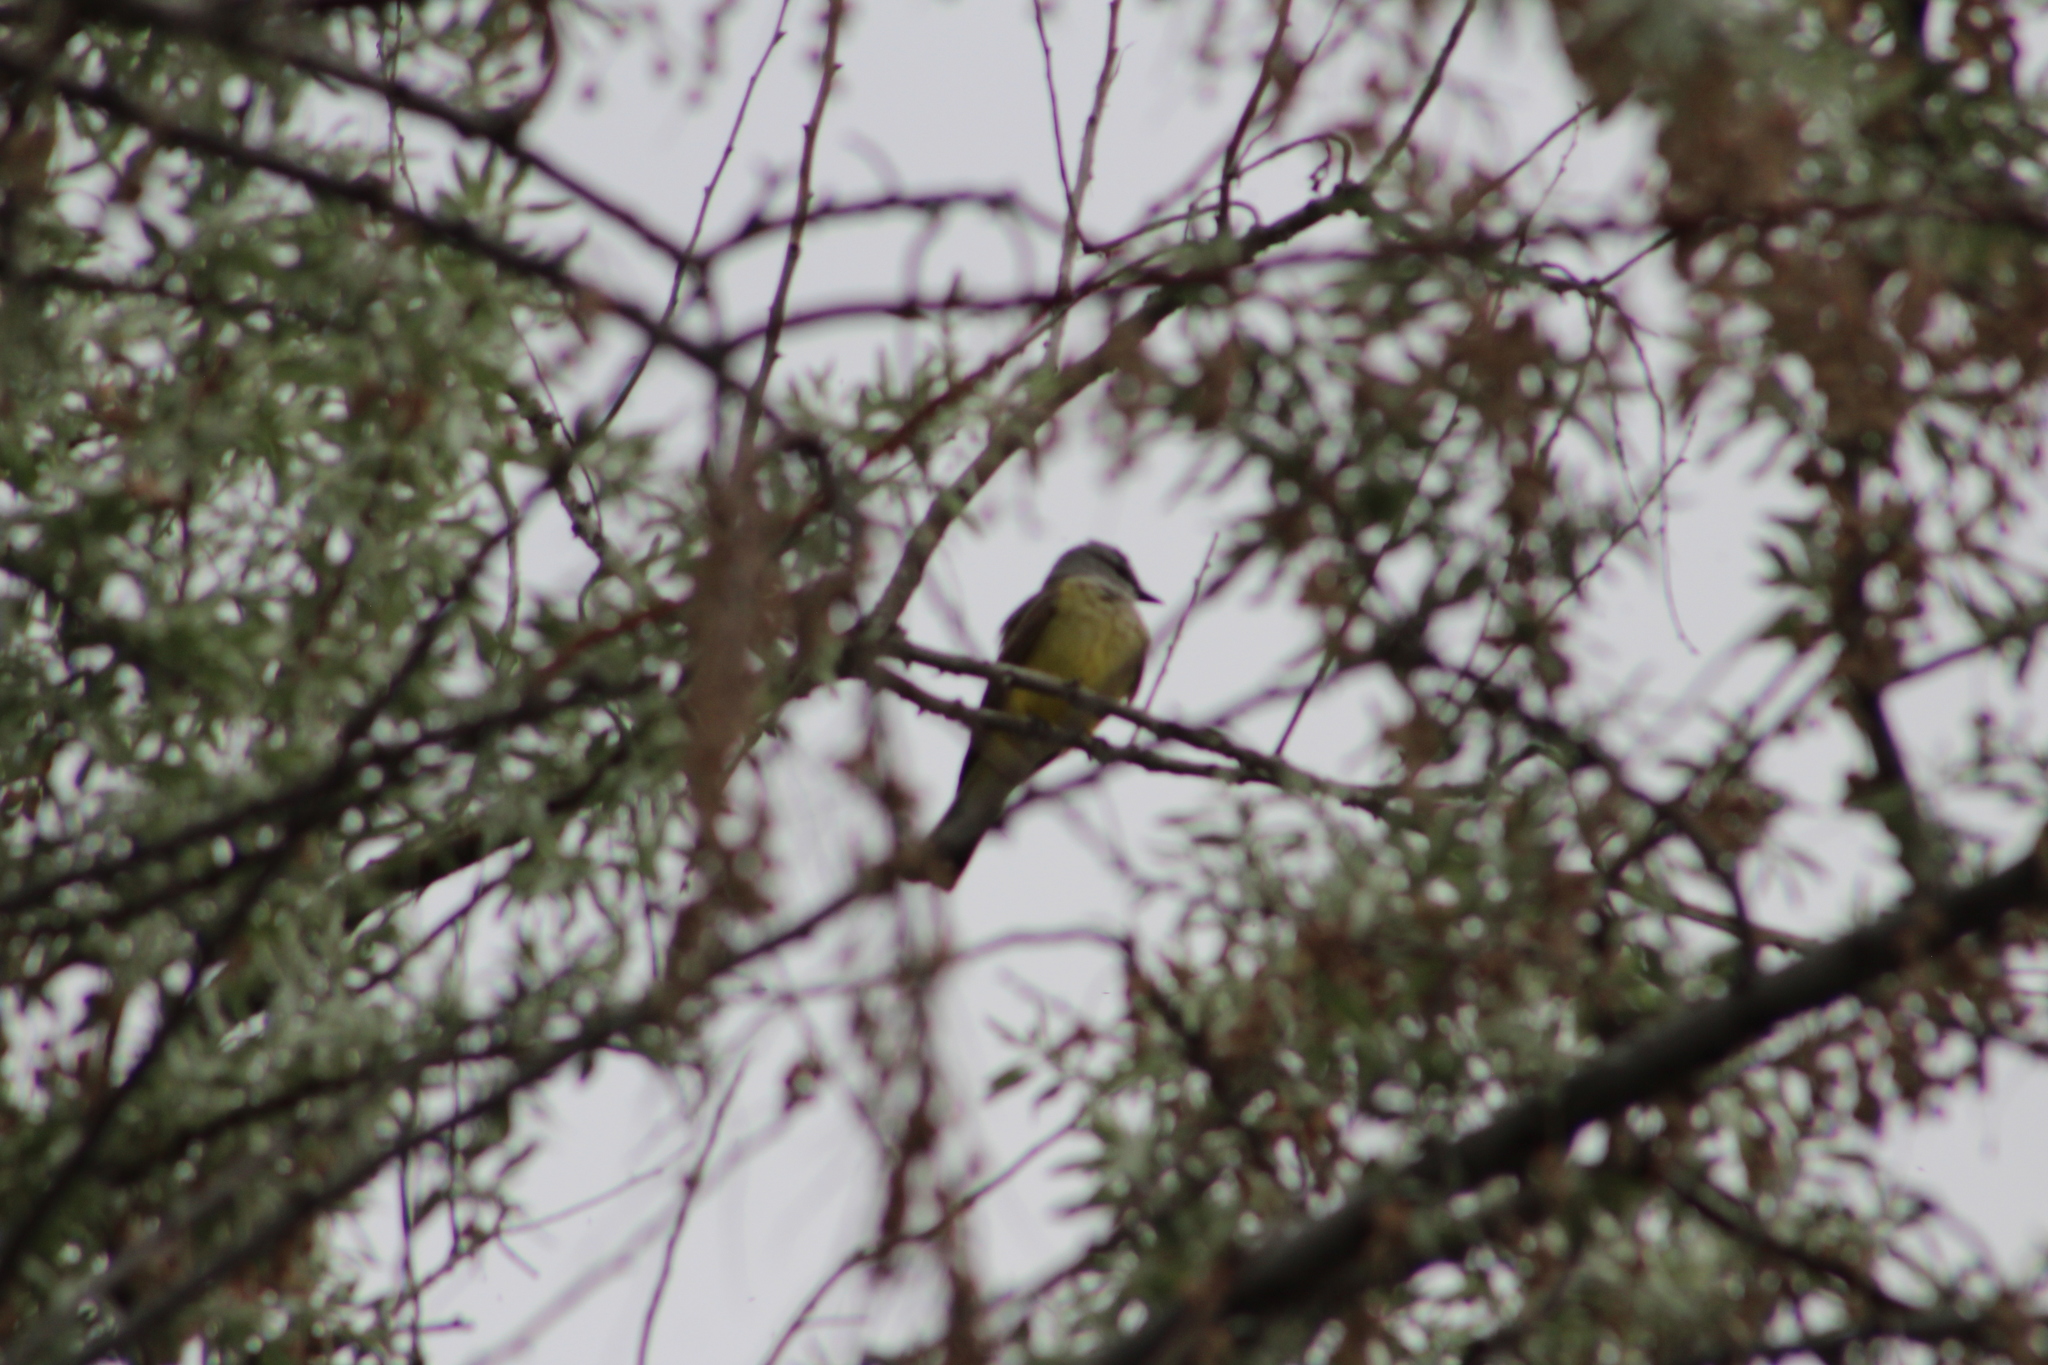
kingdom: Animalia
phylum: Chordata
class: Aves
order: Passeriformes
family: Tyrannidae
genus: Tyrannus
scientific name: Tyrannus verticalis
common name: Western kingbird
